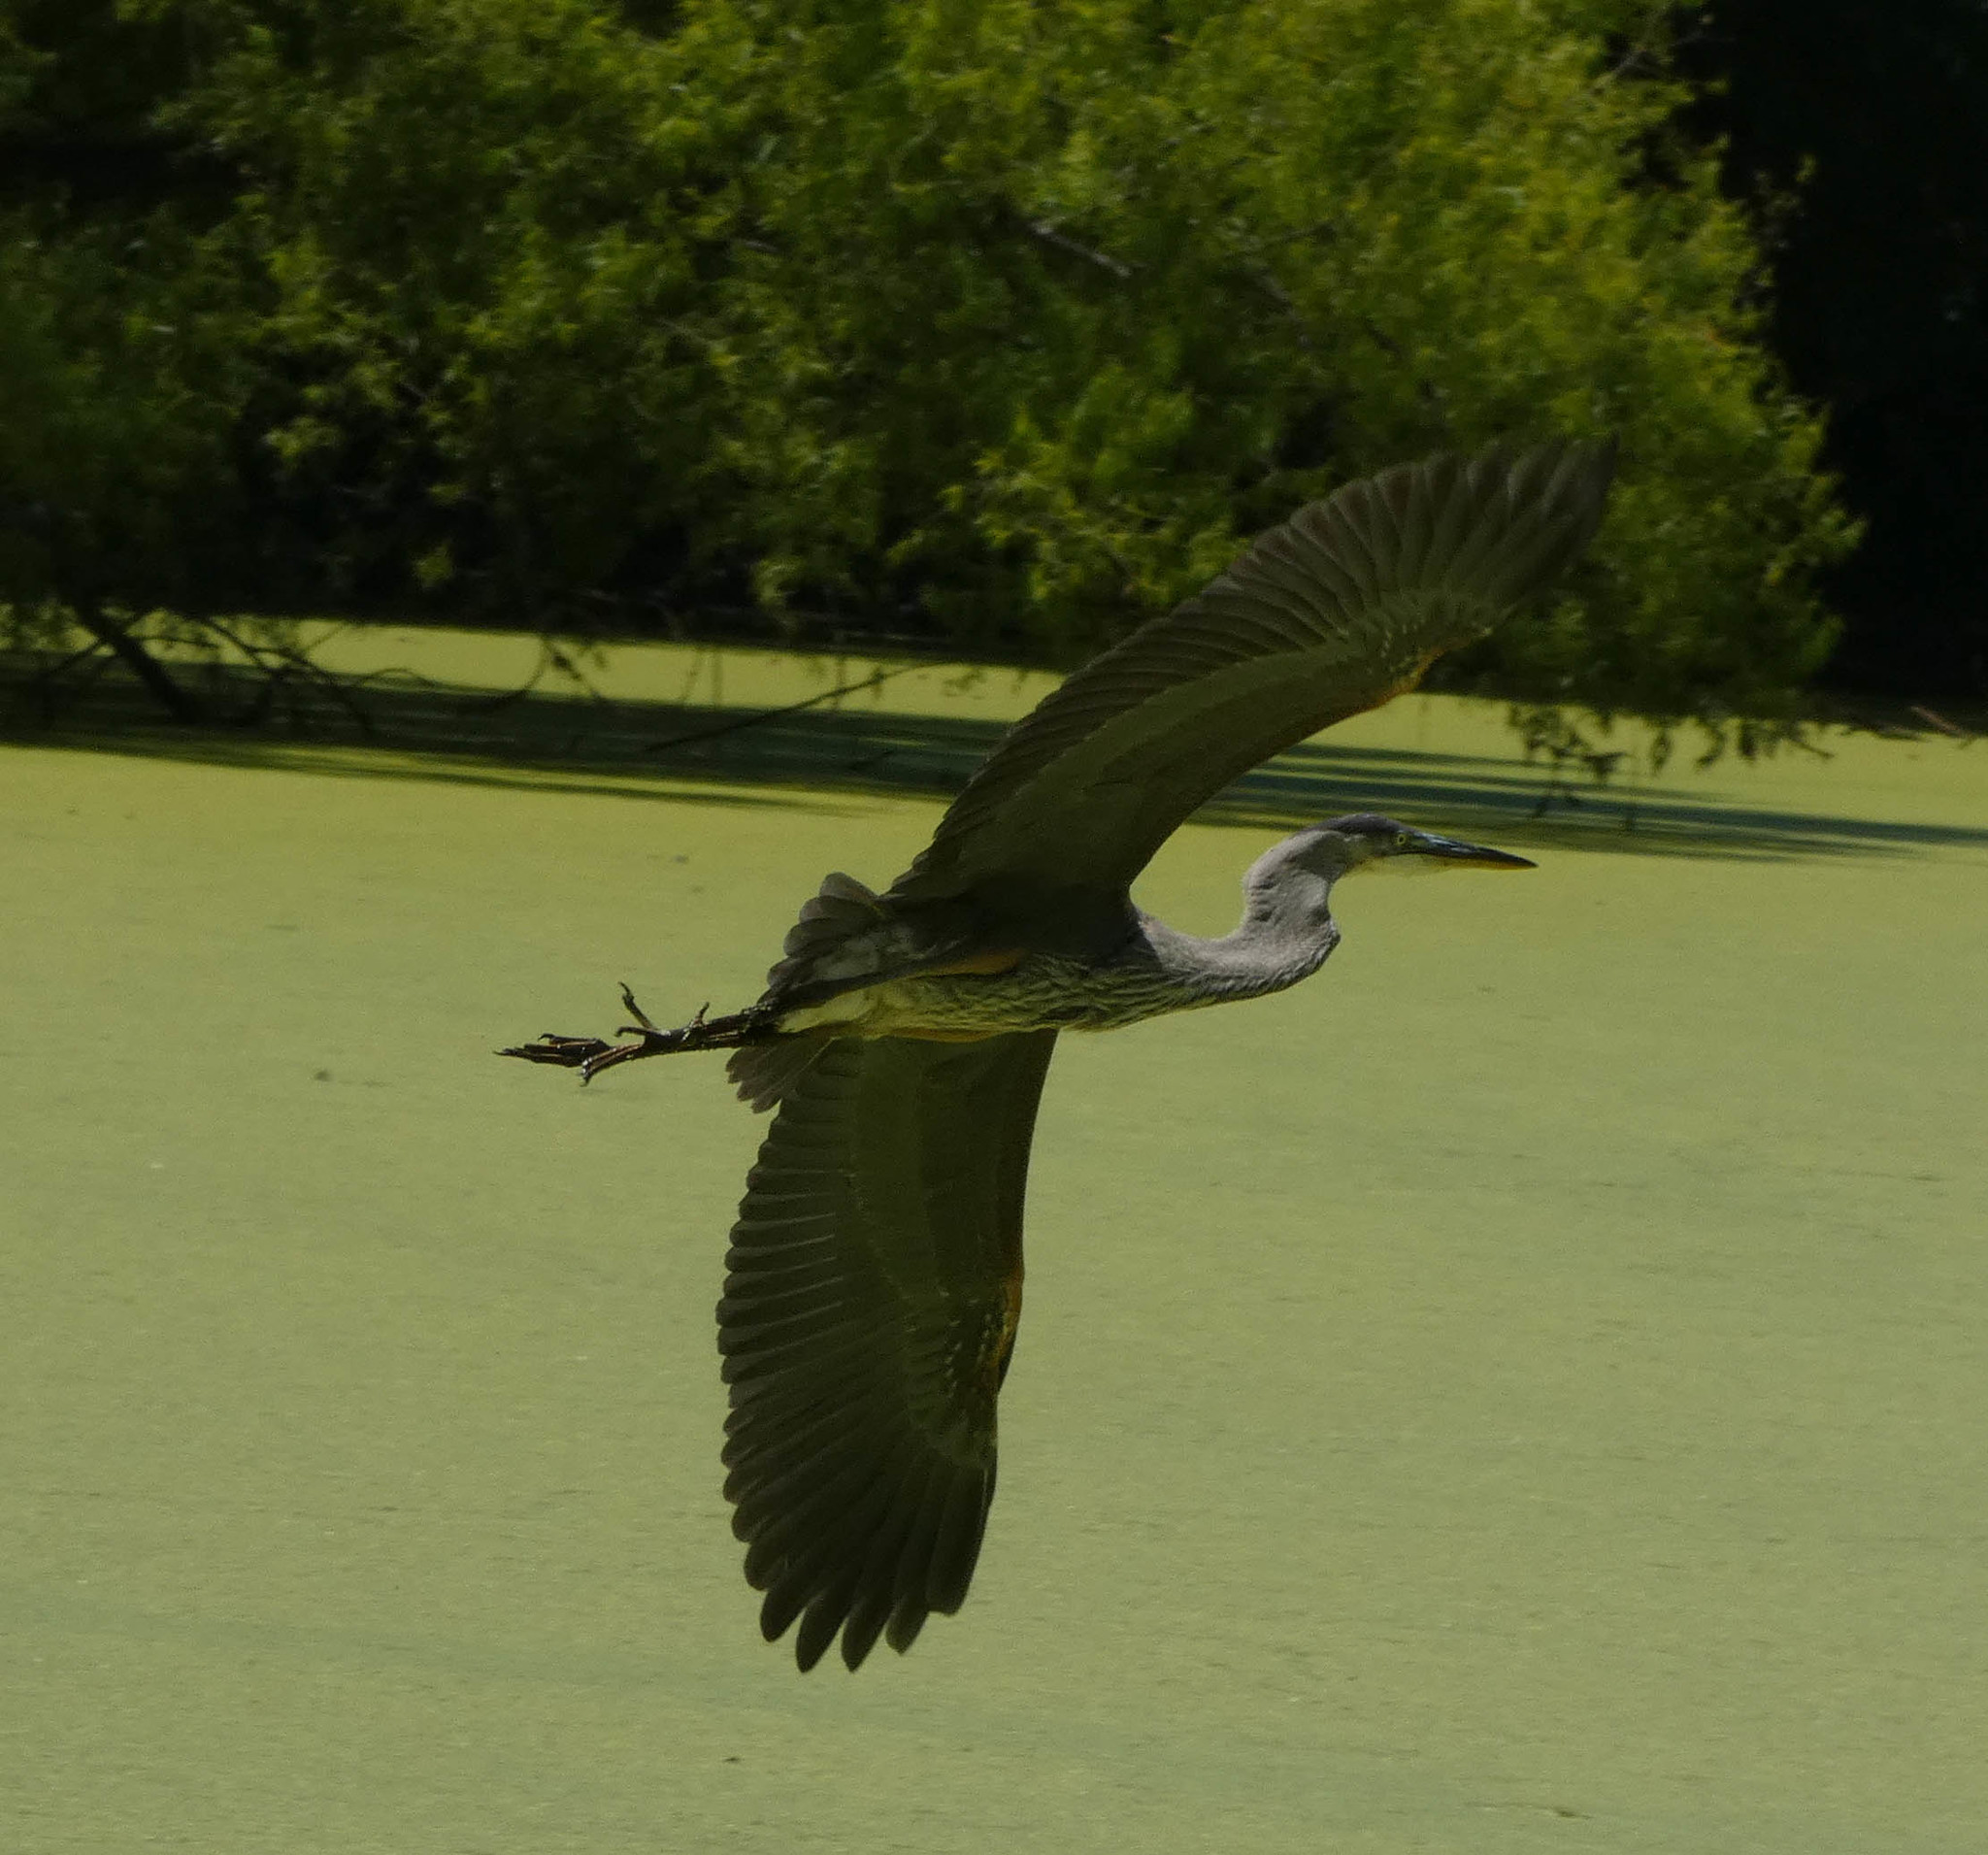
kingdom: Animalia
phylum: Chordata
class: Aves
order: Pelecaniformes
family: Ardeidae
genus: Ardea
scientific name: Ardea herodias
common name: Great blue heron
